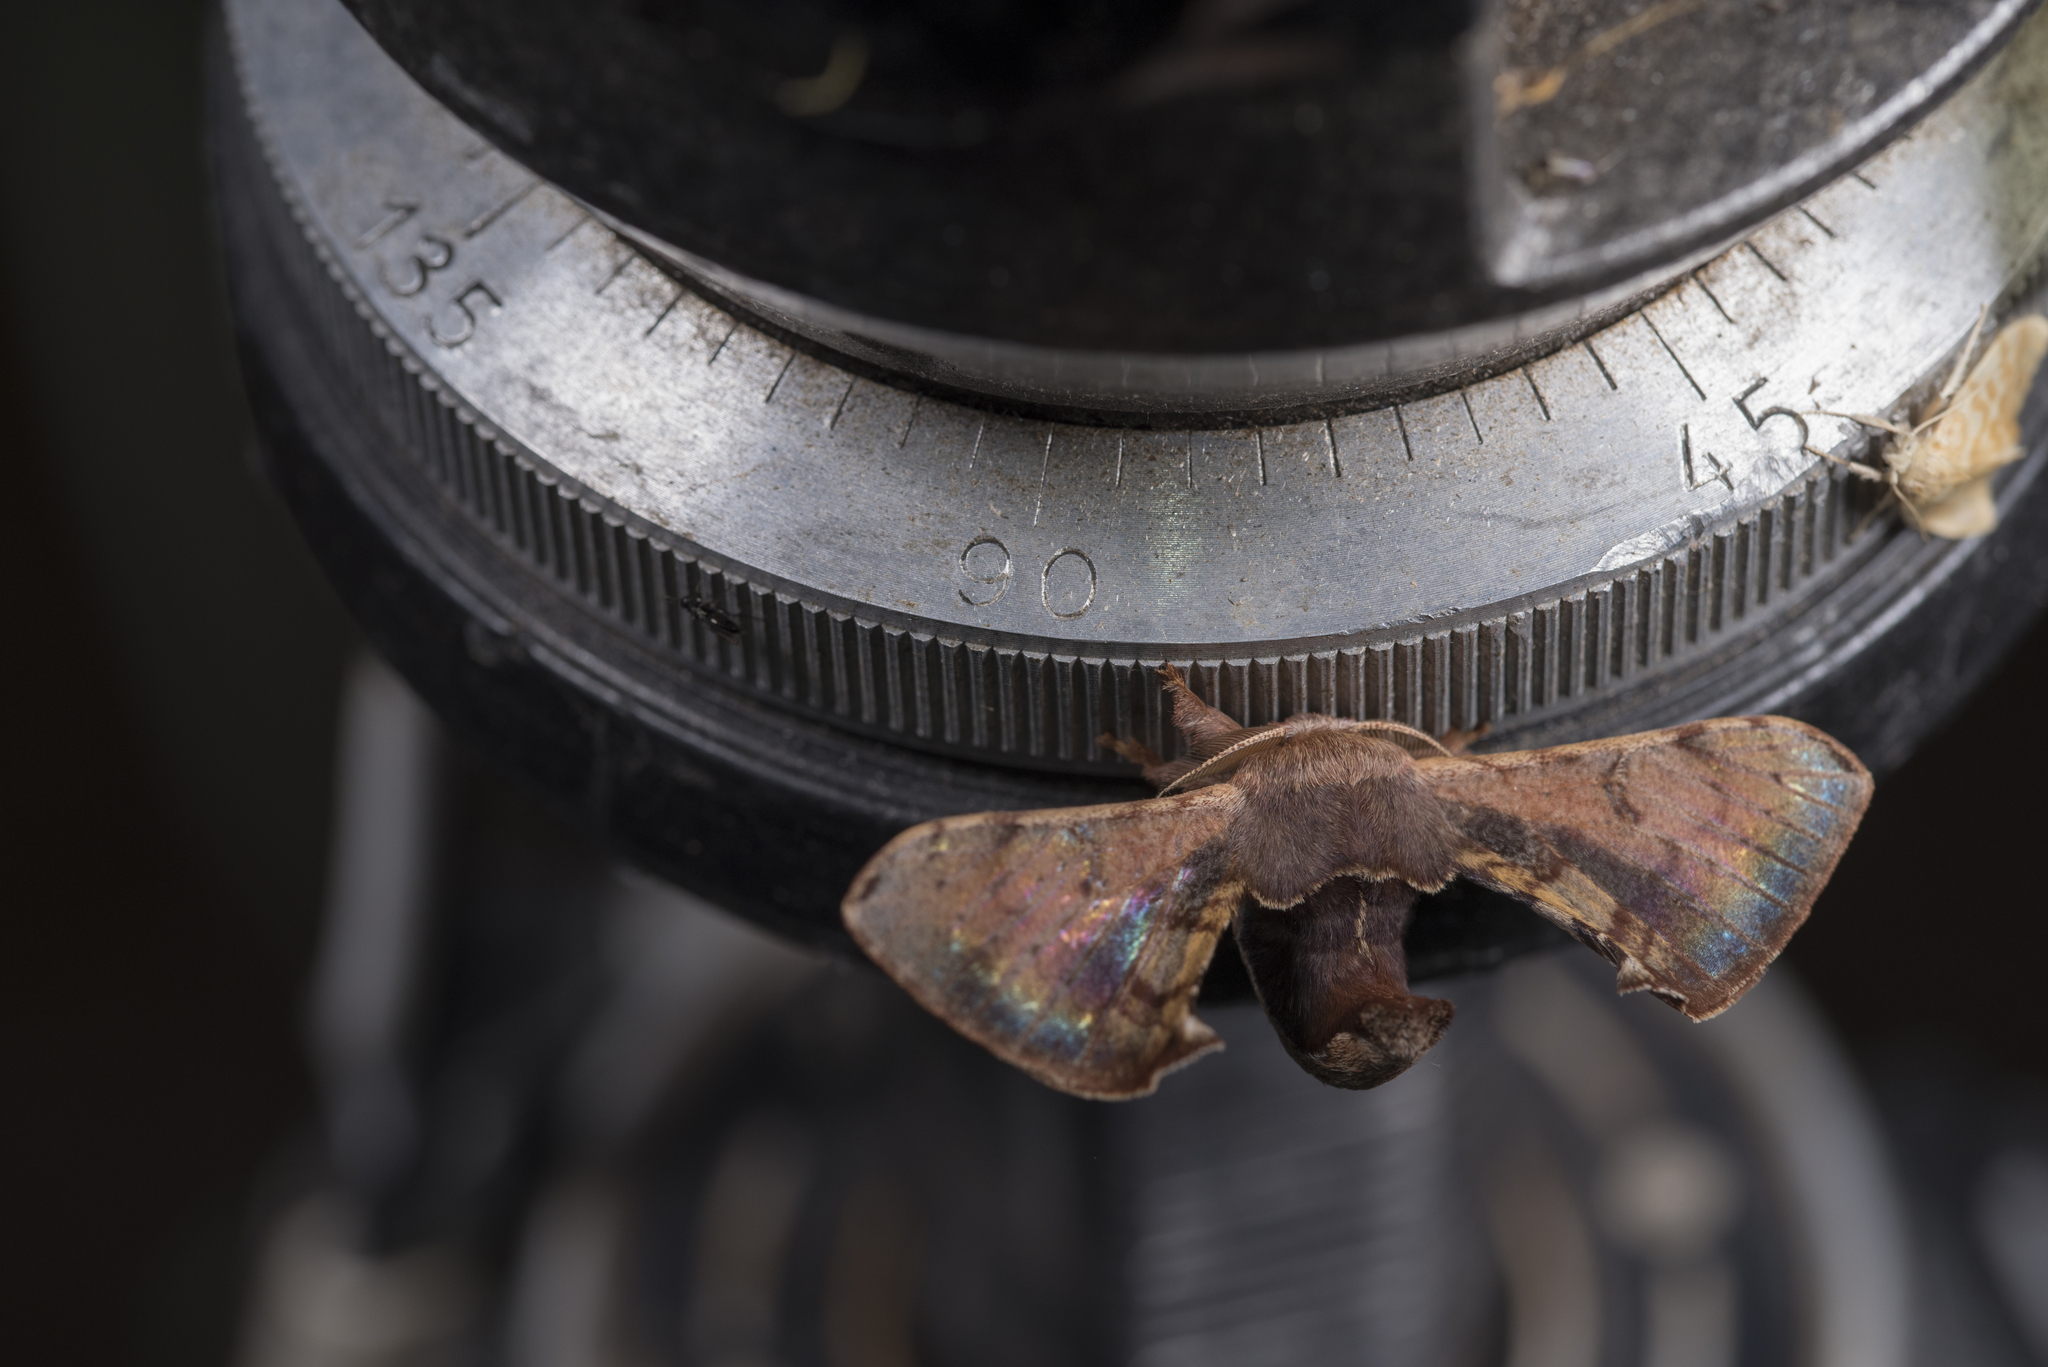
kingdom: Animalia
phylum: Arthropoda
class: Insecta
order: Lepidoptera
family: Bombycidae
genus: Triuncina
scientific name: Triuncina brunnea
